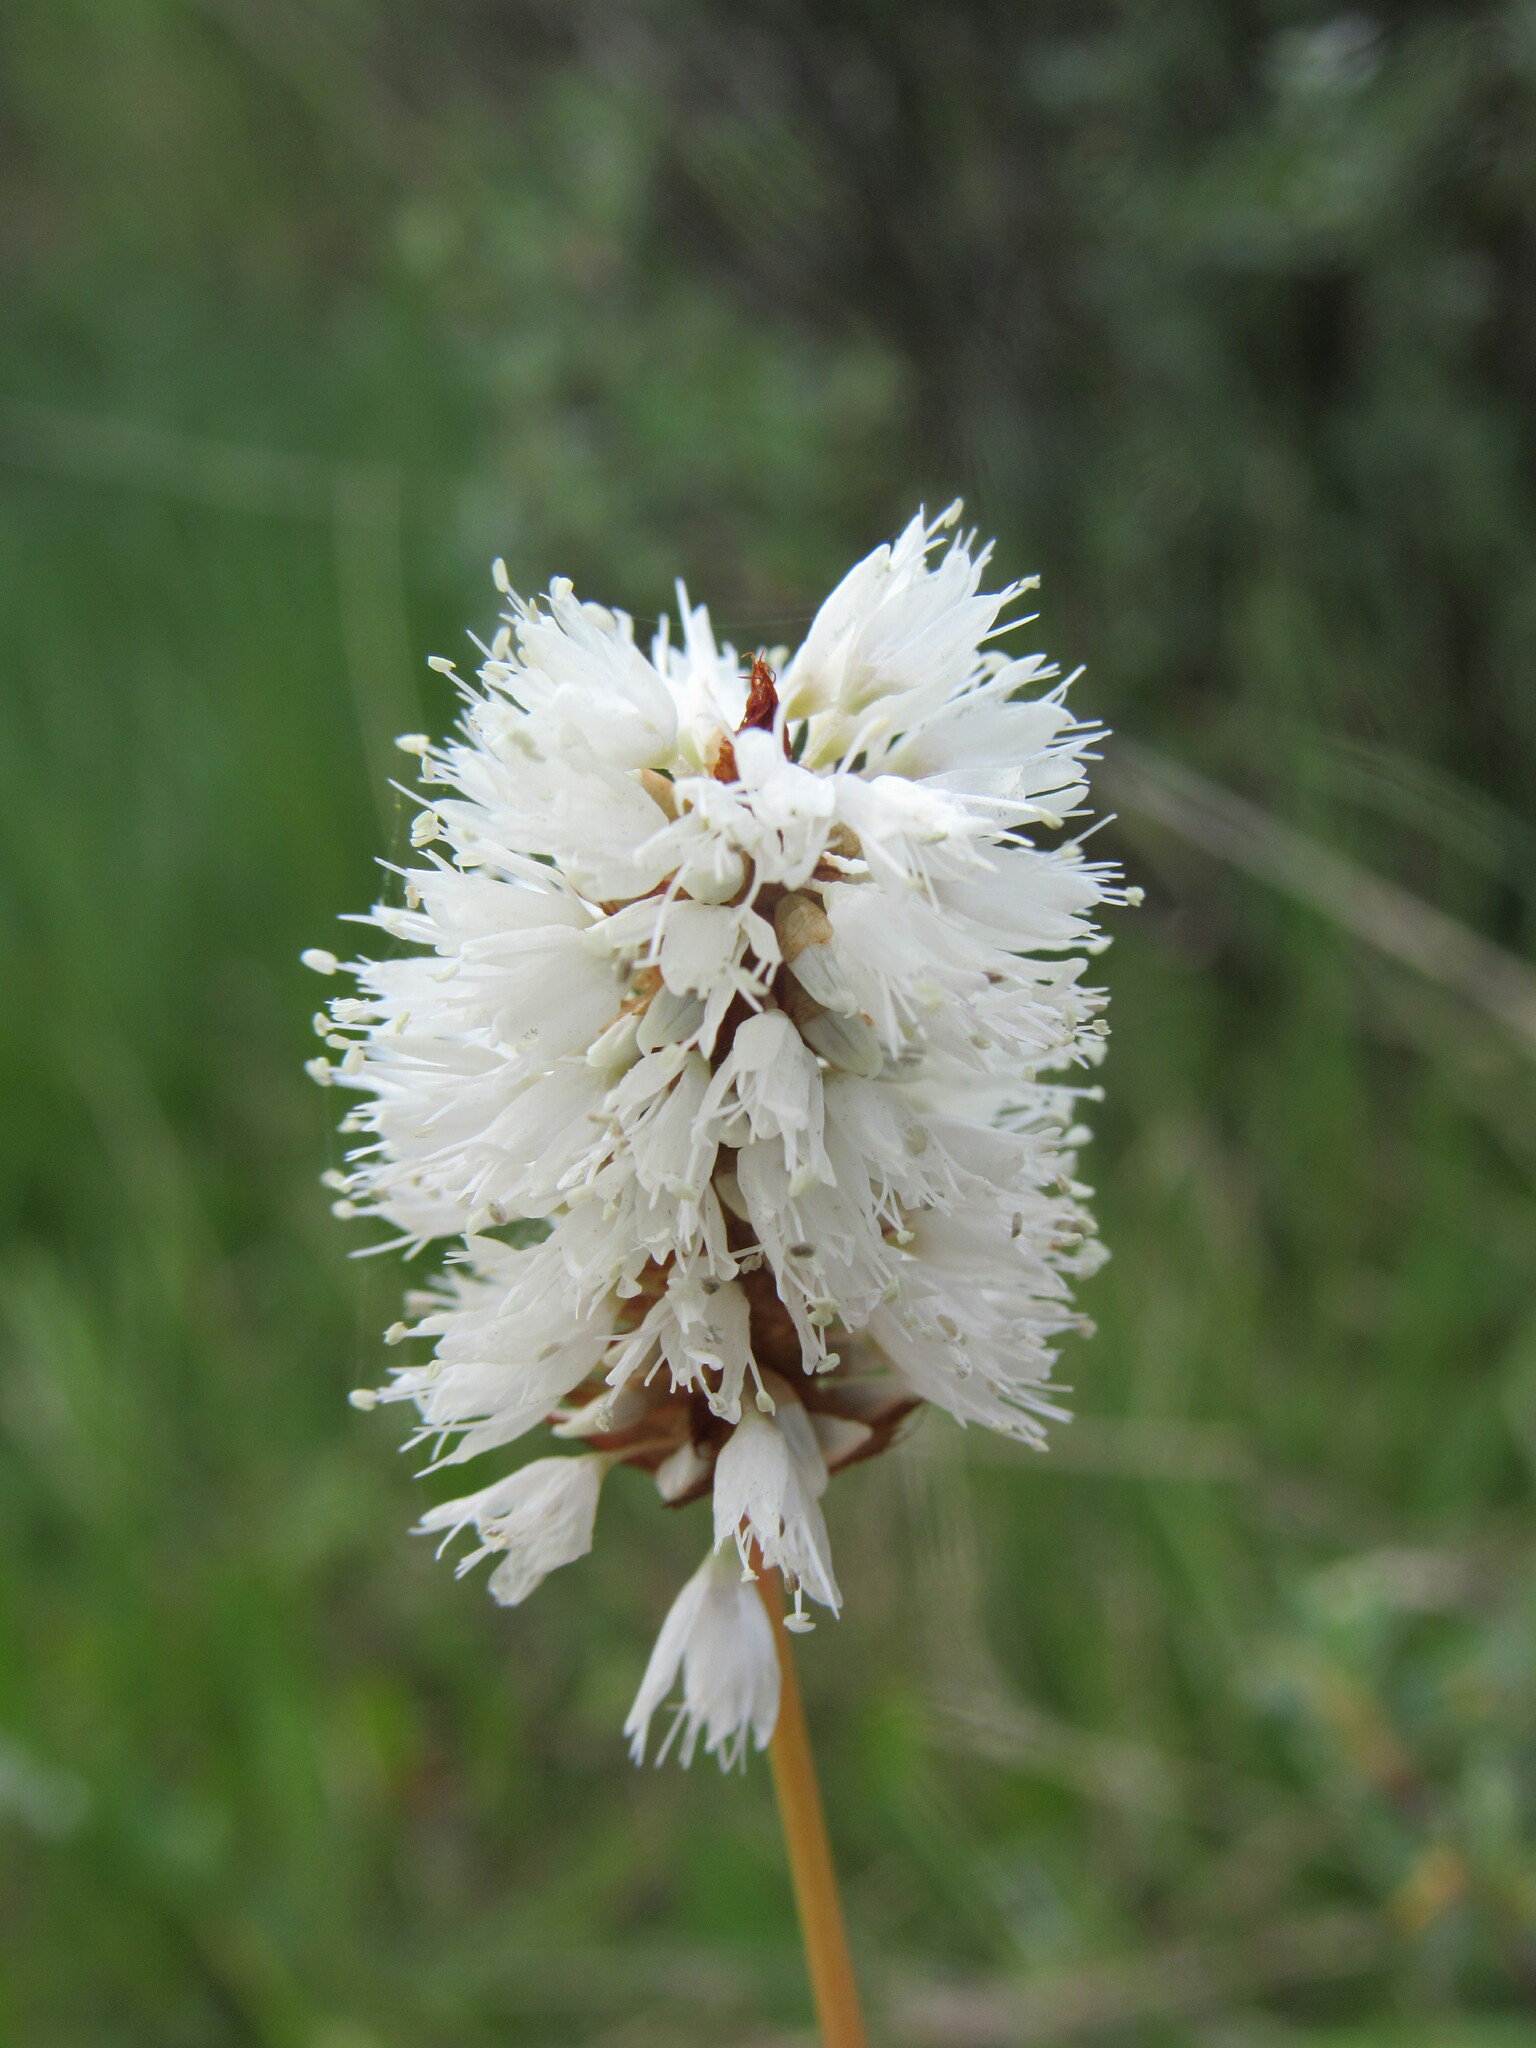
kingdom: Plantae
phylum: Tracheophyta
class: Magnoliopsida
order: Caryophyllales
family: Polygonaceae
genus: Bistorta
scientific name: Bistorta bistortoides
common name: American bistort
